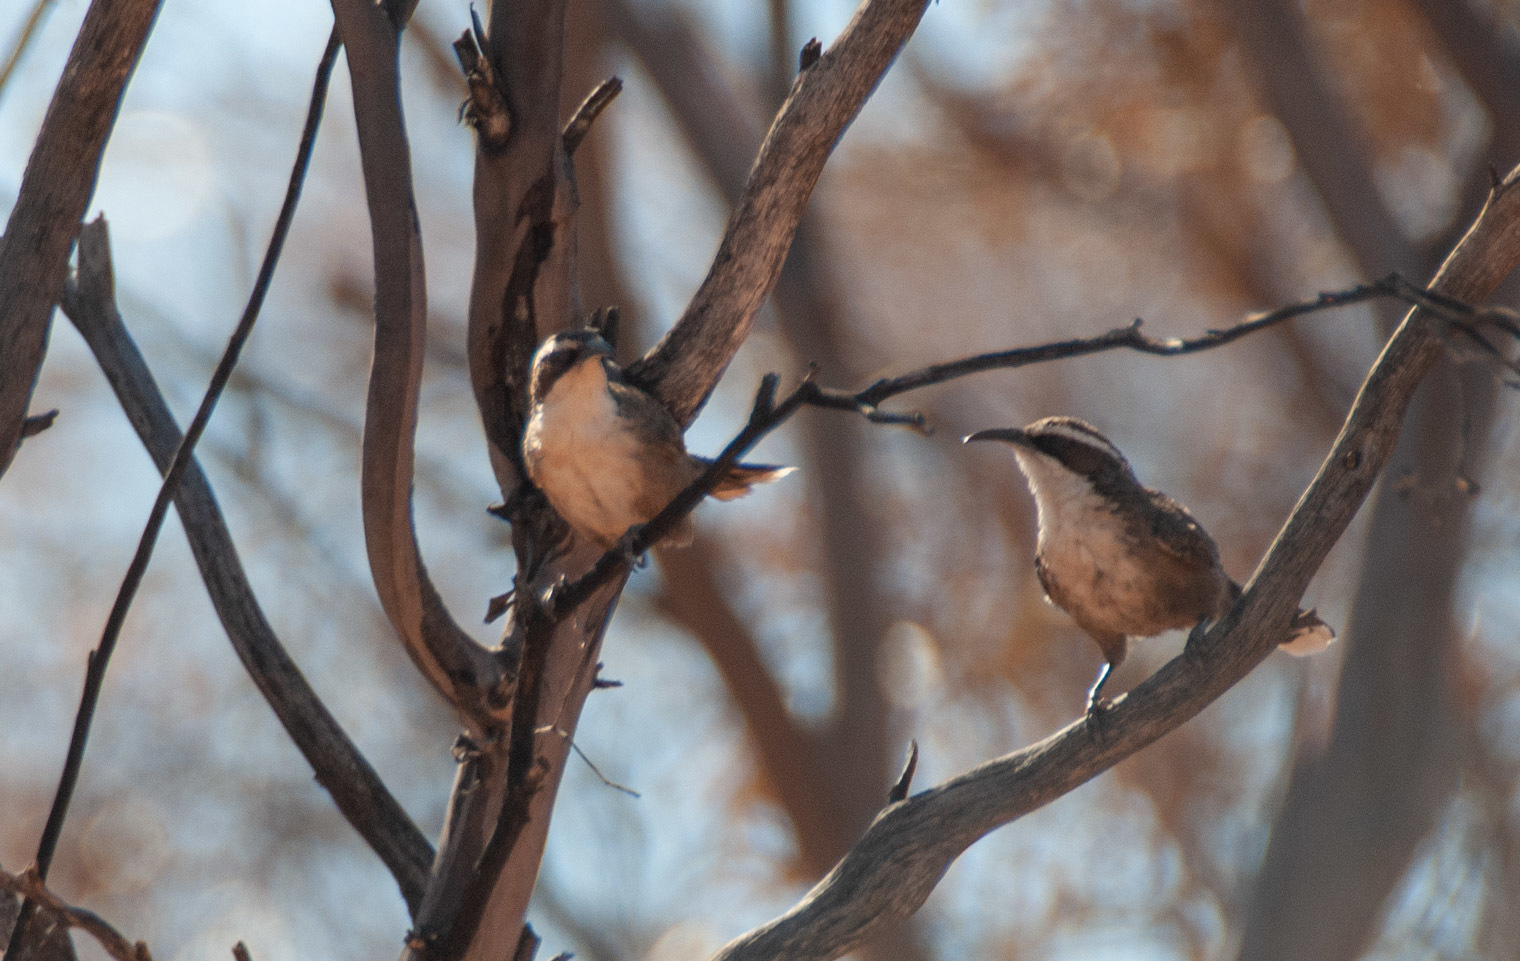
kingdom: Animalia
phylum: Chordata
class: Aves
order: Passeriformes
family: Pomatostomidae
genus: Pomatostomus
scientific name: Pomatostomus superciliosus
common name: White-browed babbler
